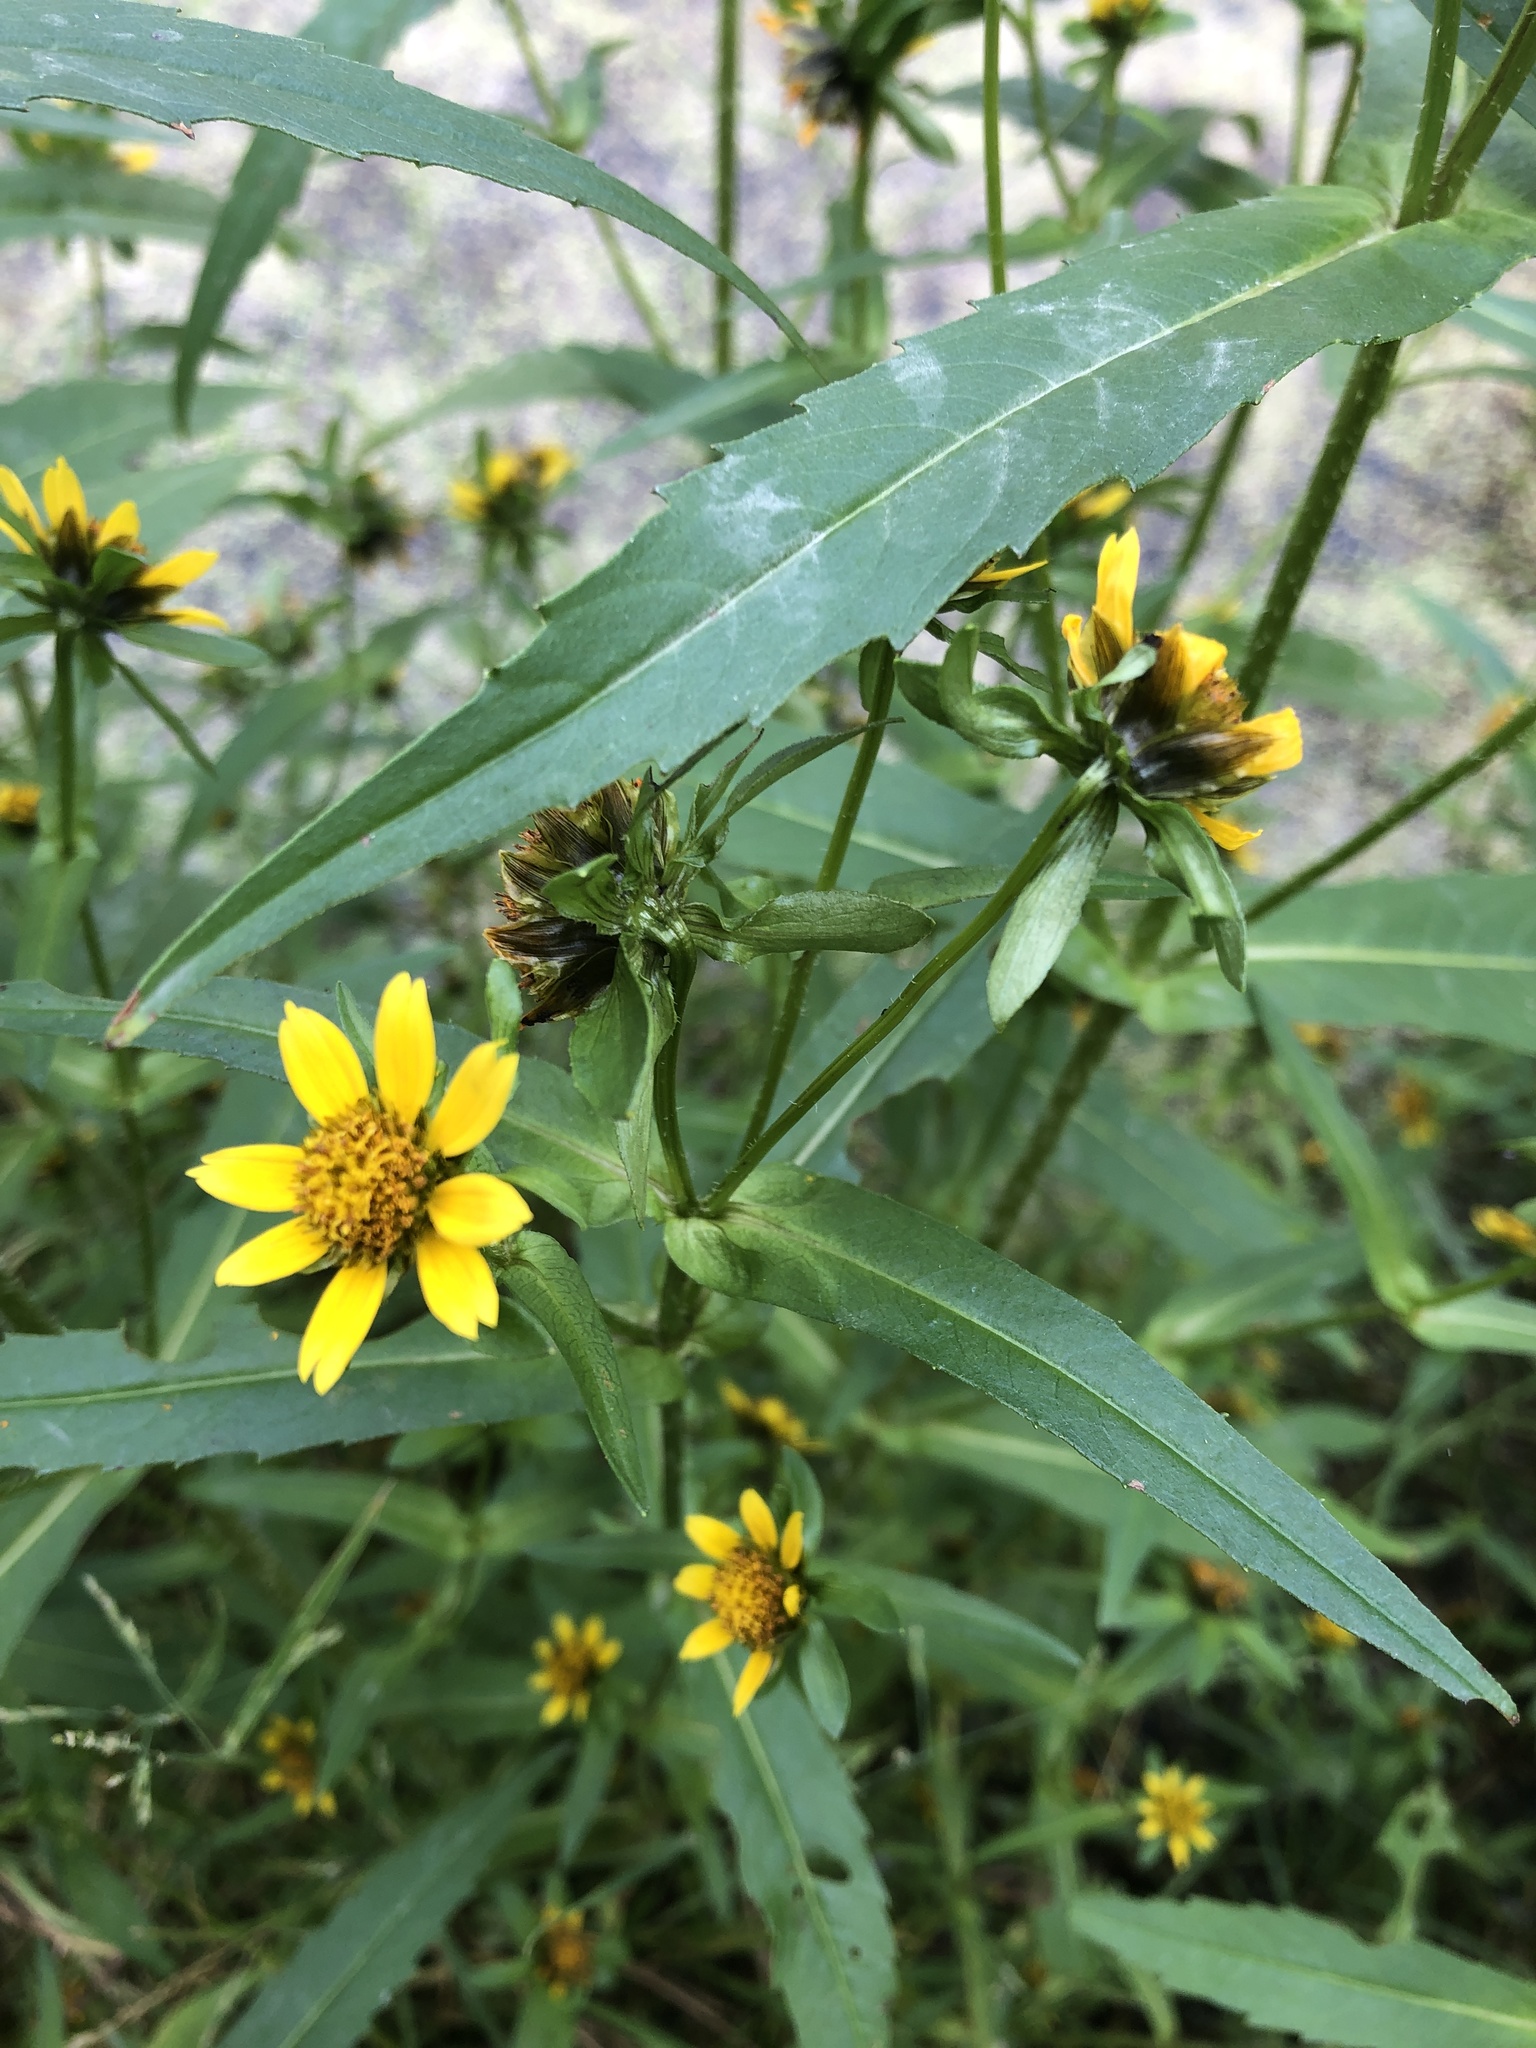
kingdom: Plantae
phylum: Tracheophyta
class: Magnoliopsida
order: Asterales
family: Asteraceae
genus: Bidens
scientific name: Bidens cernua
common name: Nodding bur-marigold
